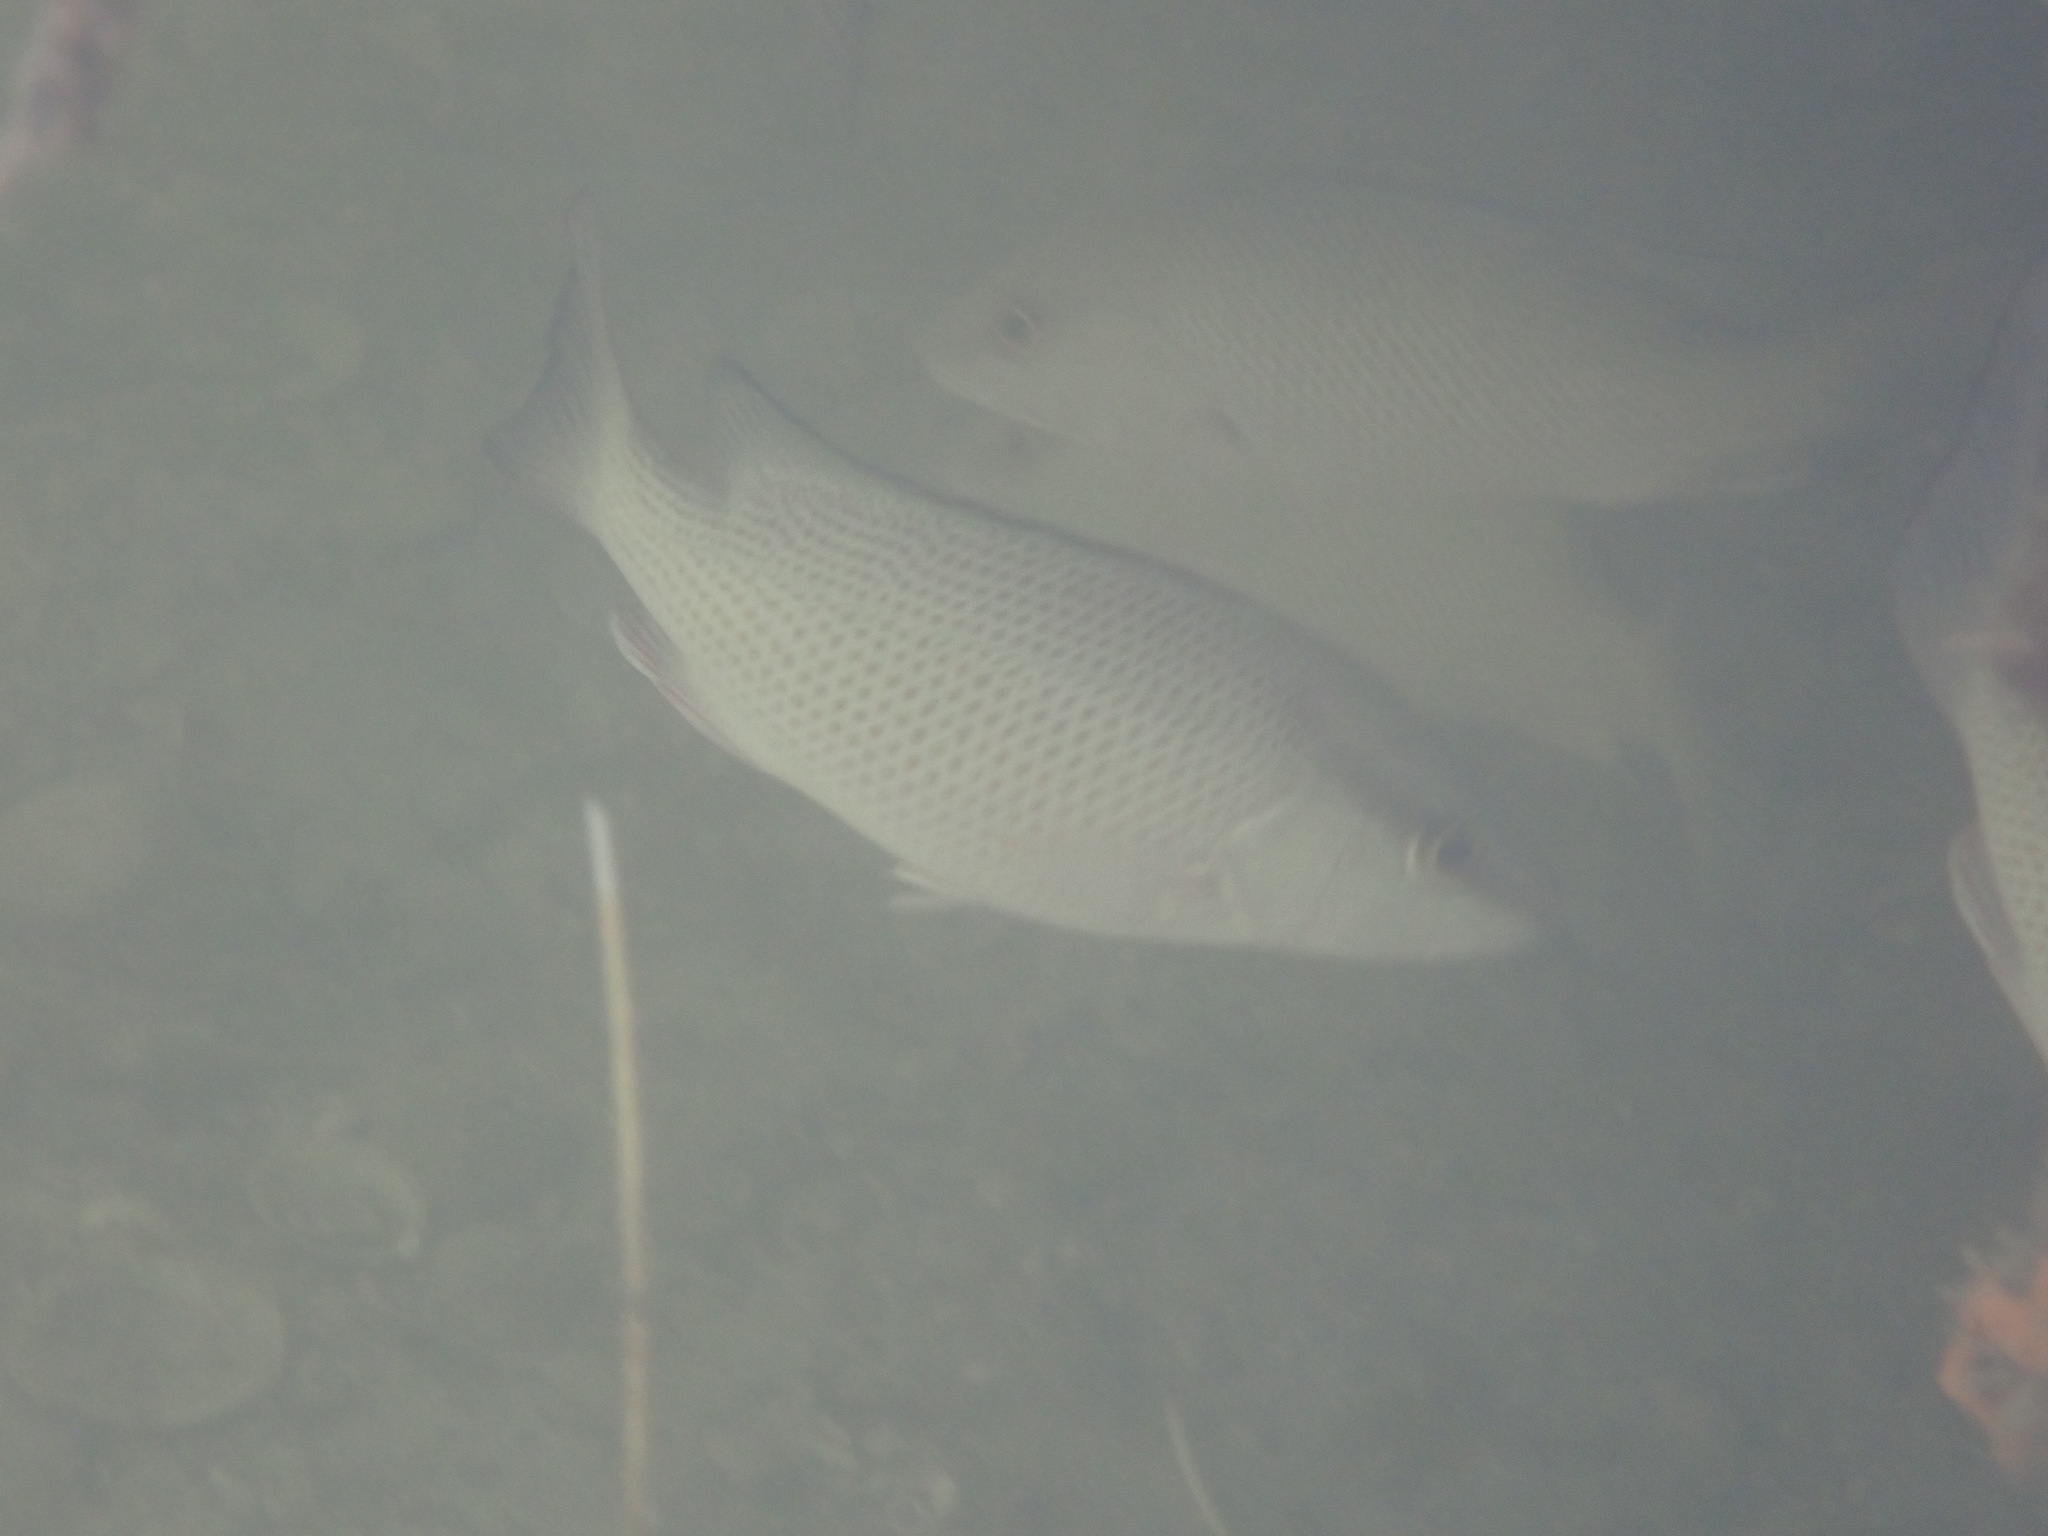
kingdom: Animalia
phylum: Chordata
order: Perciformes
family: Lutjanidae
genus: Lutjanus
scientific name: Lutjanus griseus
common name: Gray snapper
